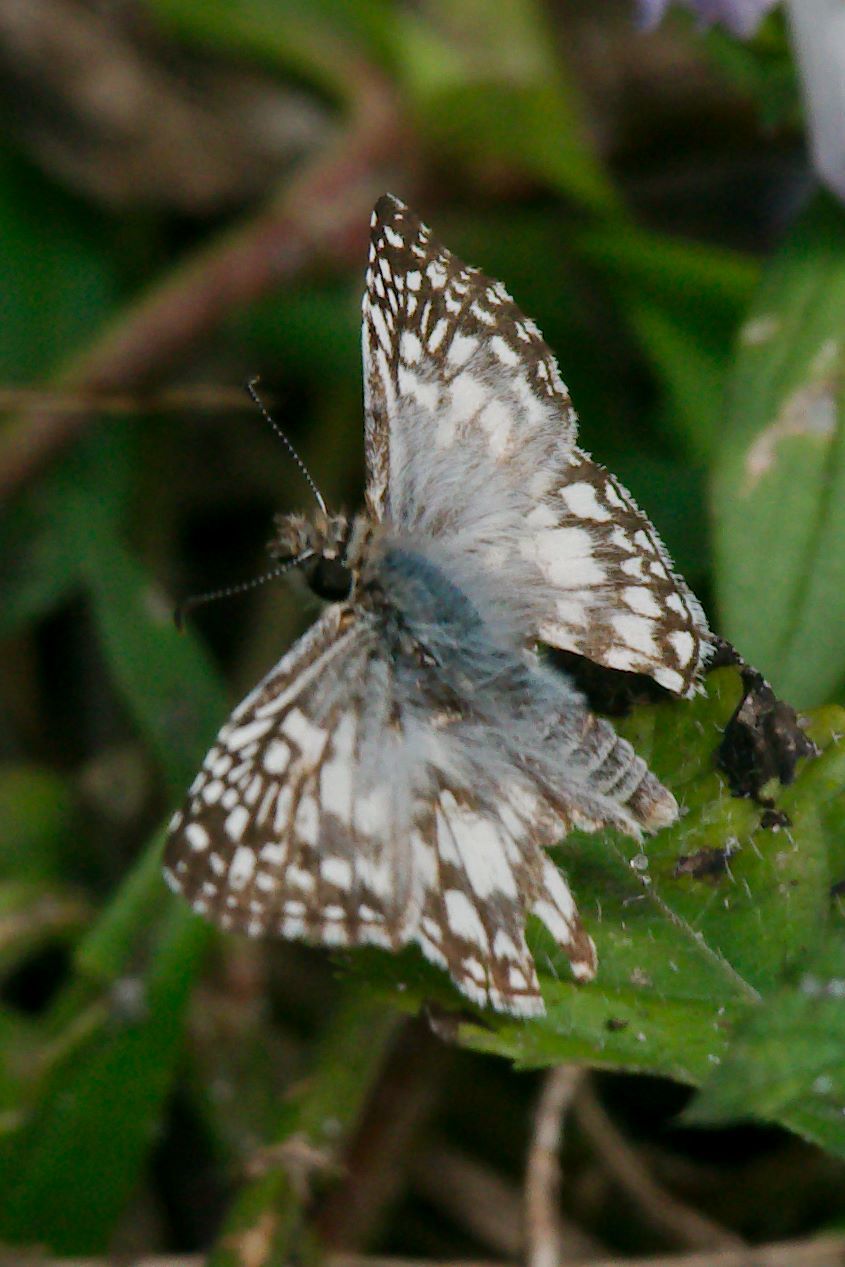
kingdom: Animalia
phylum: Arthropoda
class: Insecta
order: Lepidoptera
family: Hesperiidae
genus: Pyrgus
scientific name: Pyrgus oileus
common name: Tropical checkered-skipper
